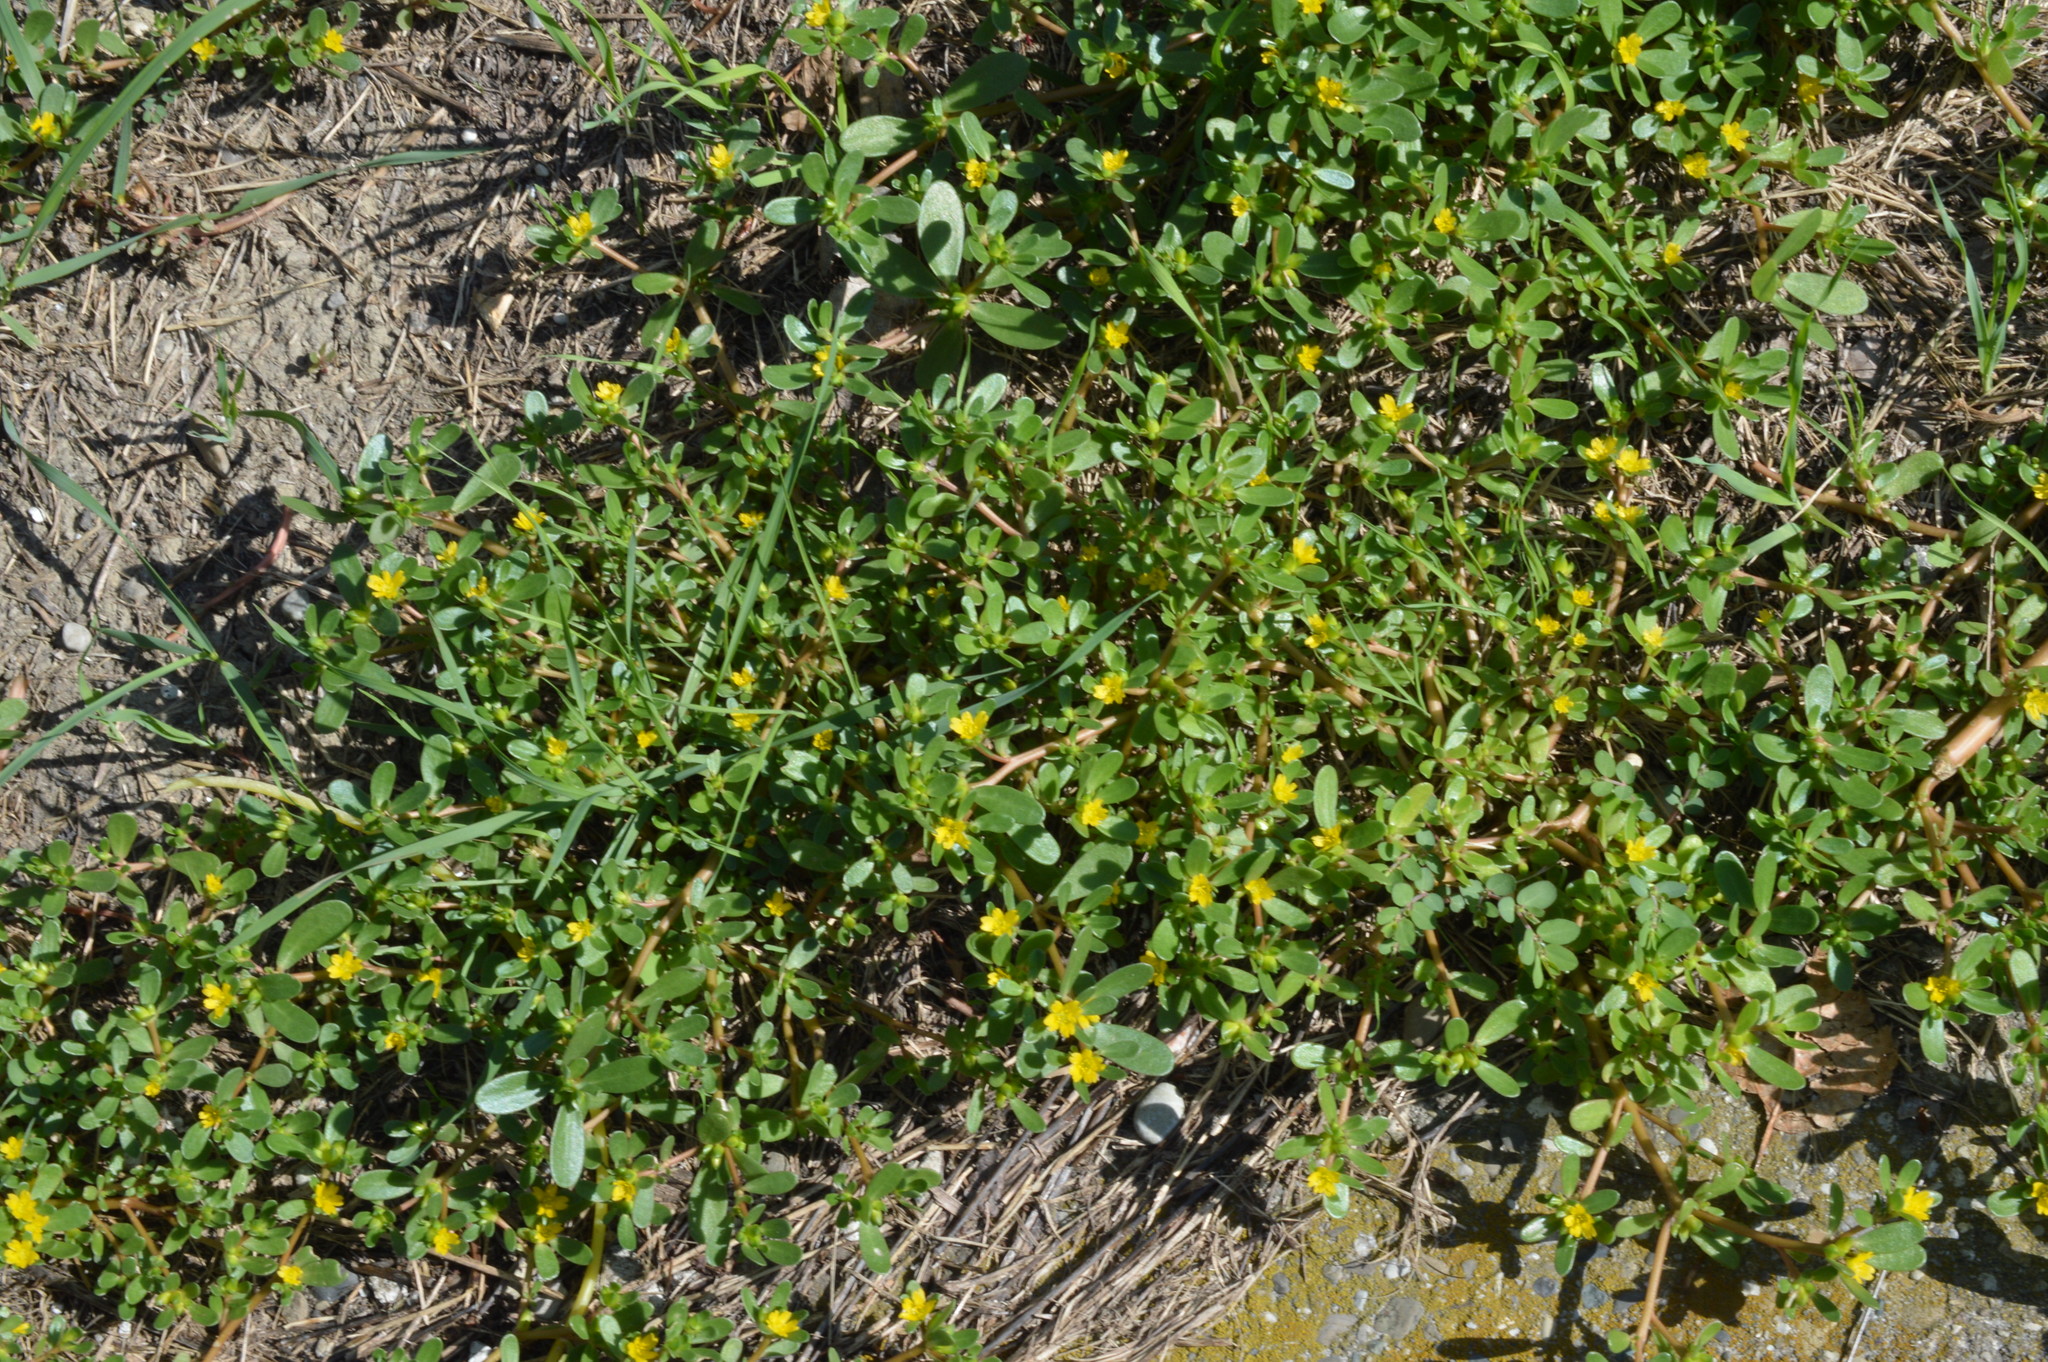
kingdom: Plantae
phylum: Tracheophyta
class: Magnoliopsida
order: Caryophyllales
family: Portulacaceae
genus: Portulaca
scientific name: Portulaca oleracea
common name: Common purslane
